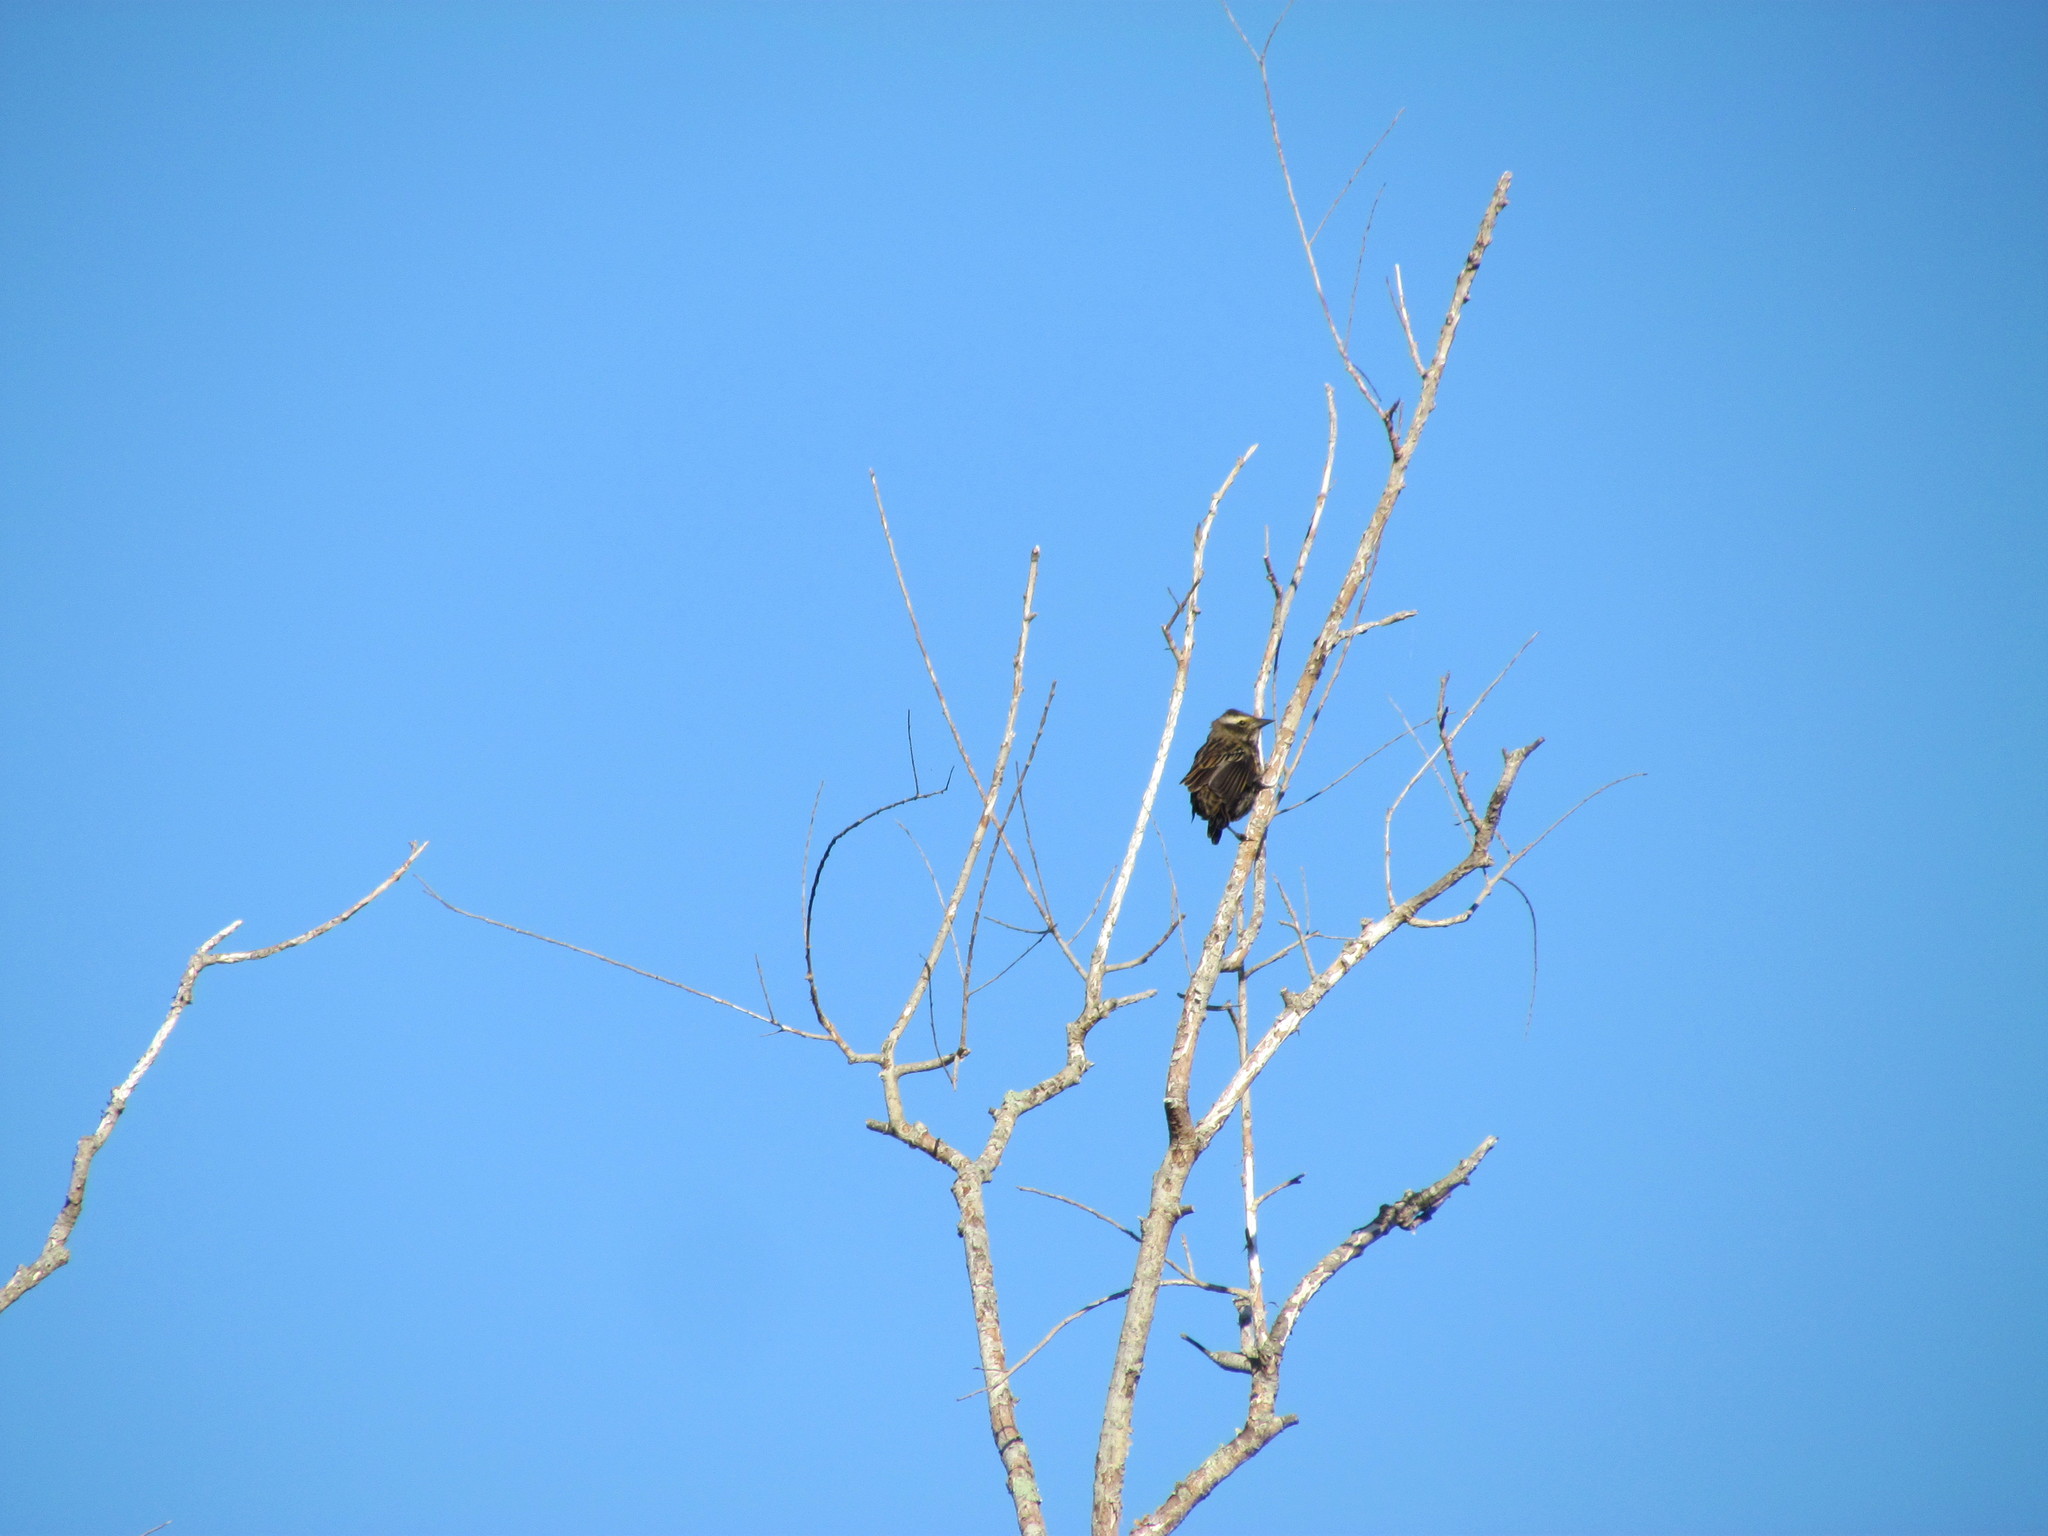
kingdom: Animalia
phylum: Chordata
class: Aves
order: Passeriformes
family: Icteridae
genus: Agelasticus
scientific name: Agelasticus thilius
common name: Yellow-winged blackbird
